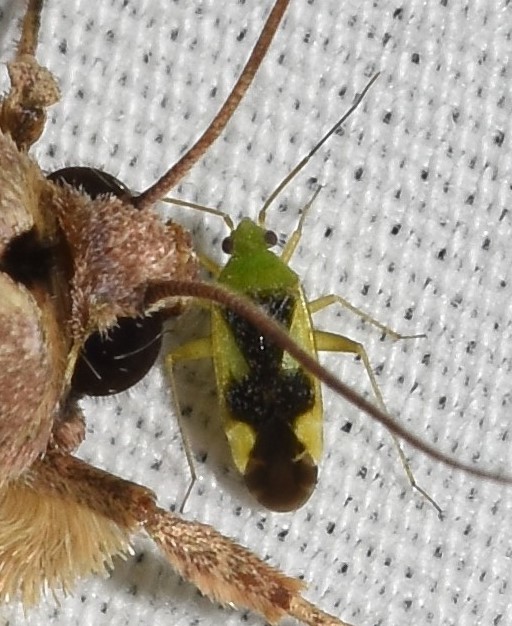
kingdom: Animalia
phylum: Arthropoda
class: Insecta
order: Hemiptera
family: Miridae
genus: Reuteroscopus
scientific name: Reuteroscopus ornatus
